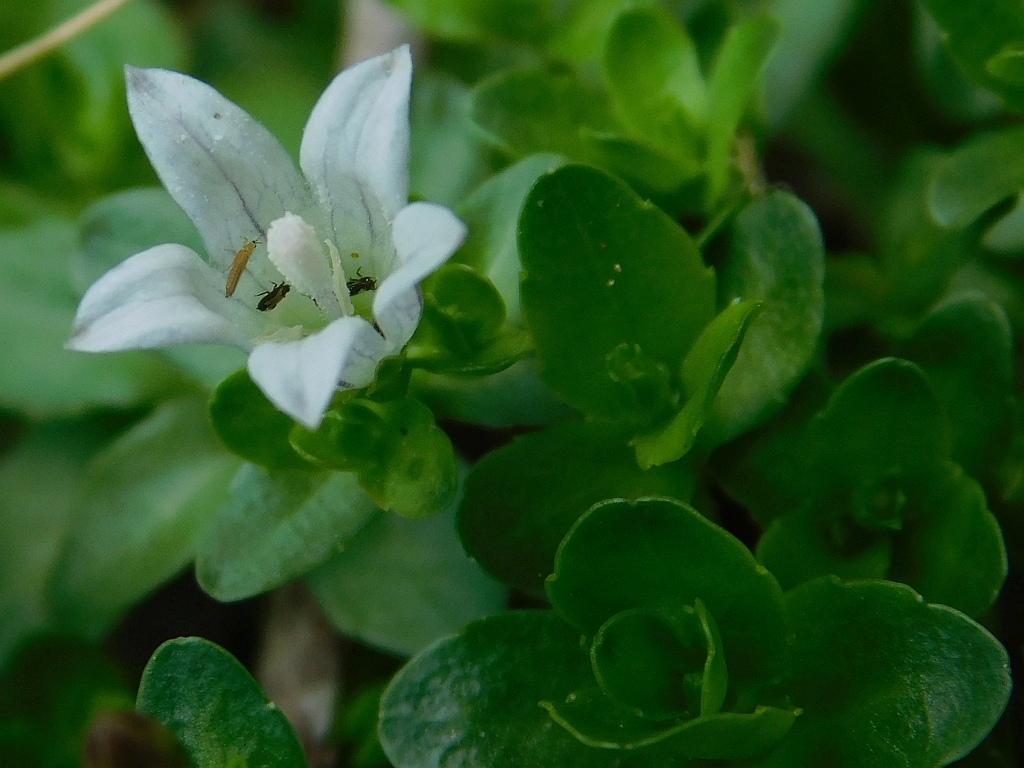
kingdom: Plantae
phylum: Tracheophyta
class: Magnoliopsida
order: Asterales
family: Campanulaceae
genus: Wahlenbergia
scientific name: Wahlenbergia procumbens
